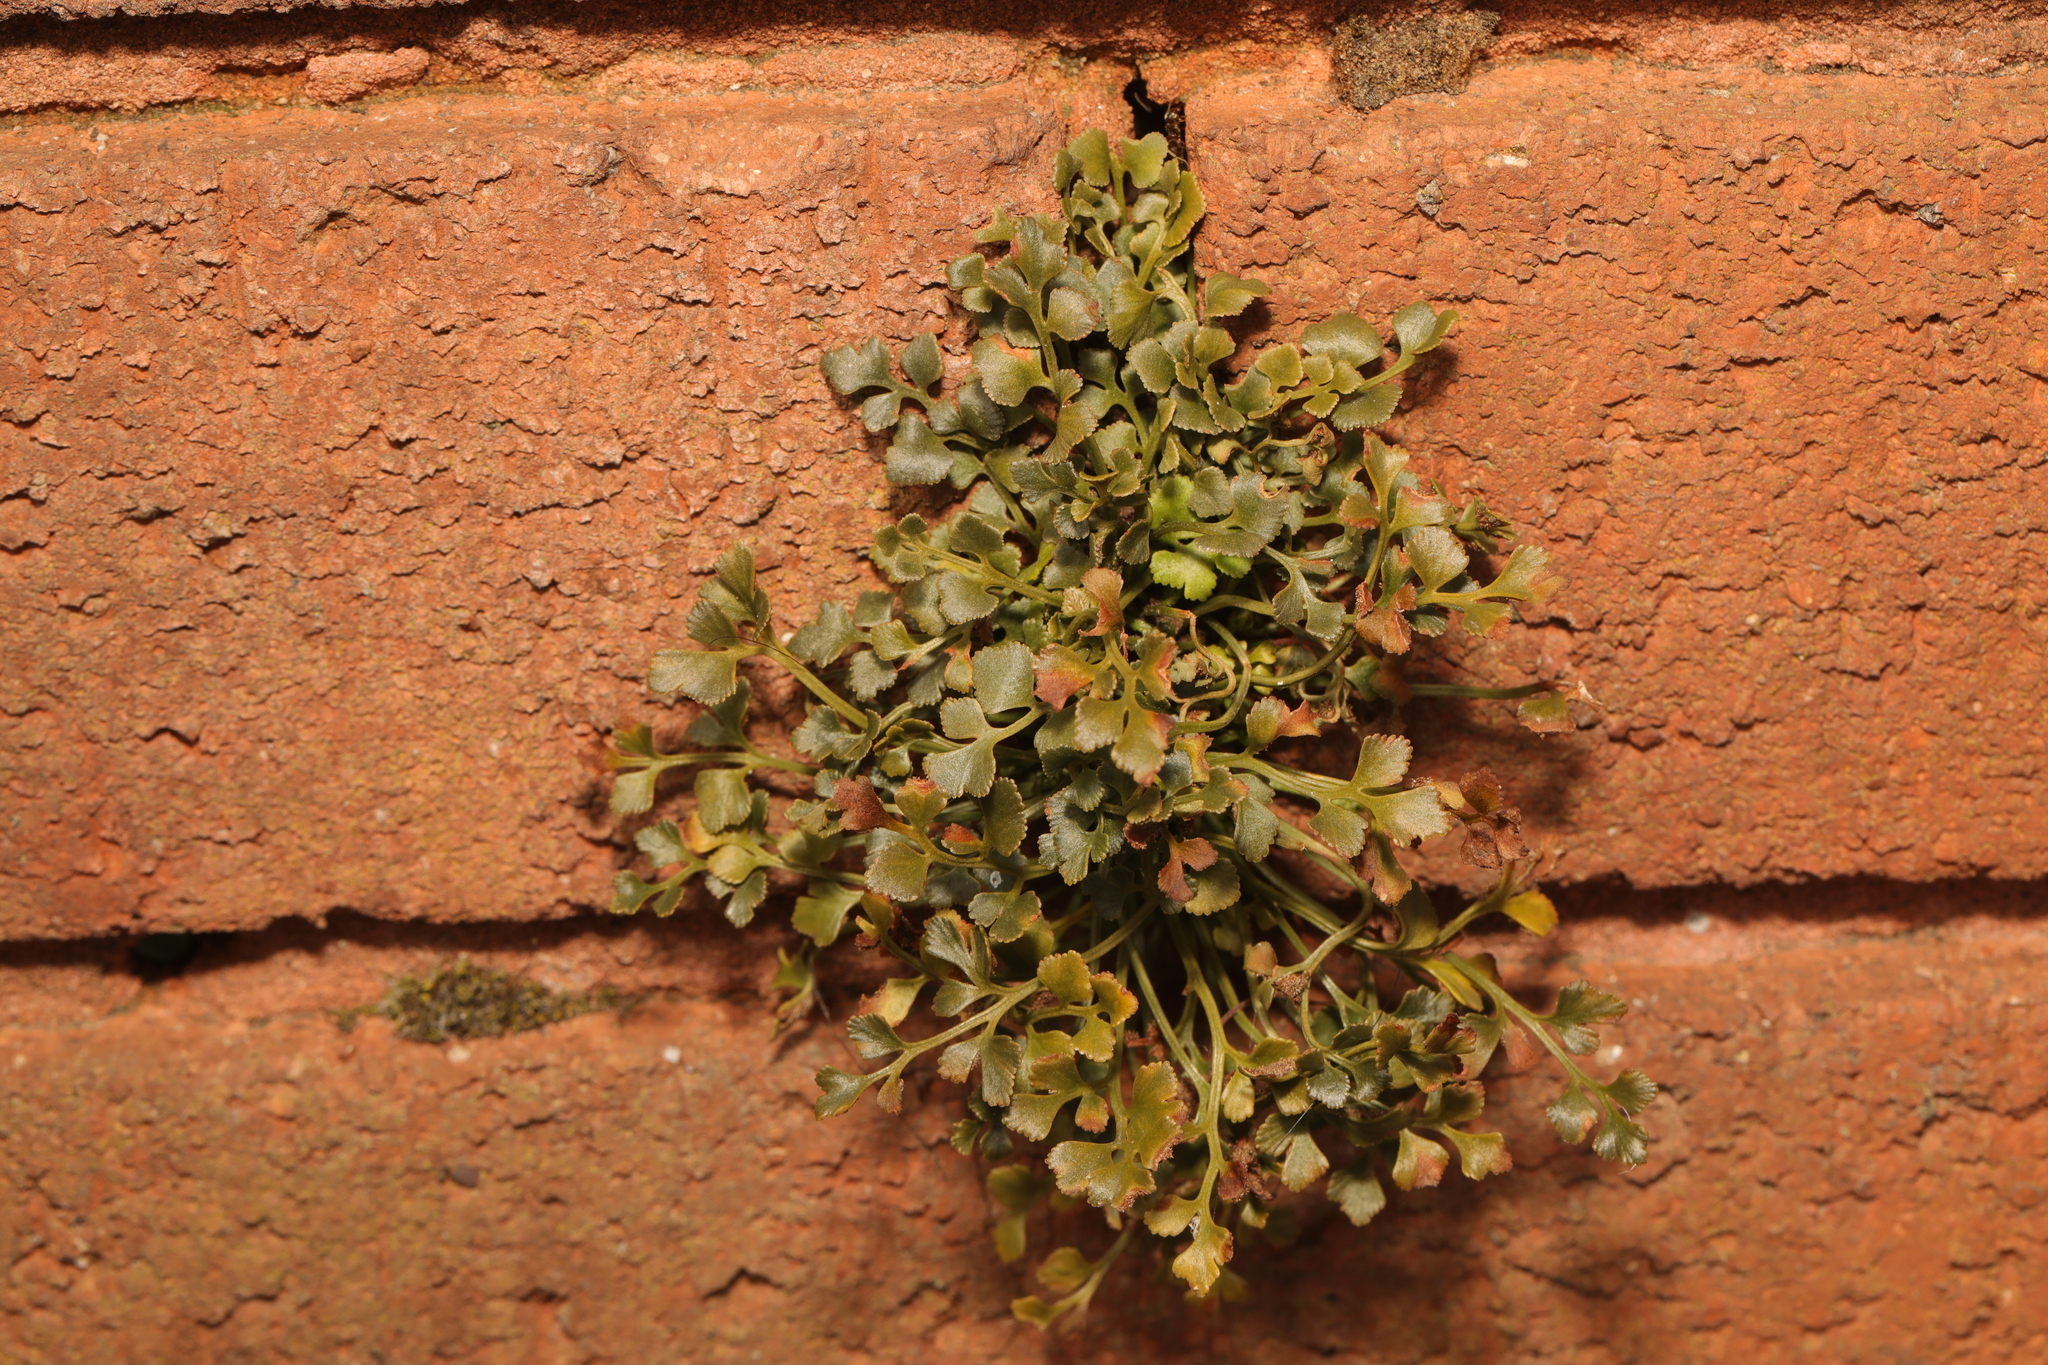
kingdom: Plantae
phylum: Tracheophyta
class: Polypodiopsida
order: Polypodiales
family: Aspleniaceae
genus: Asplenium
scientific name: Asplenium ruta-muraria
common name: Wall-rue
